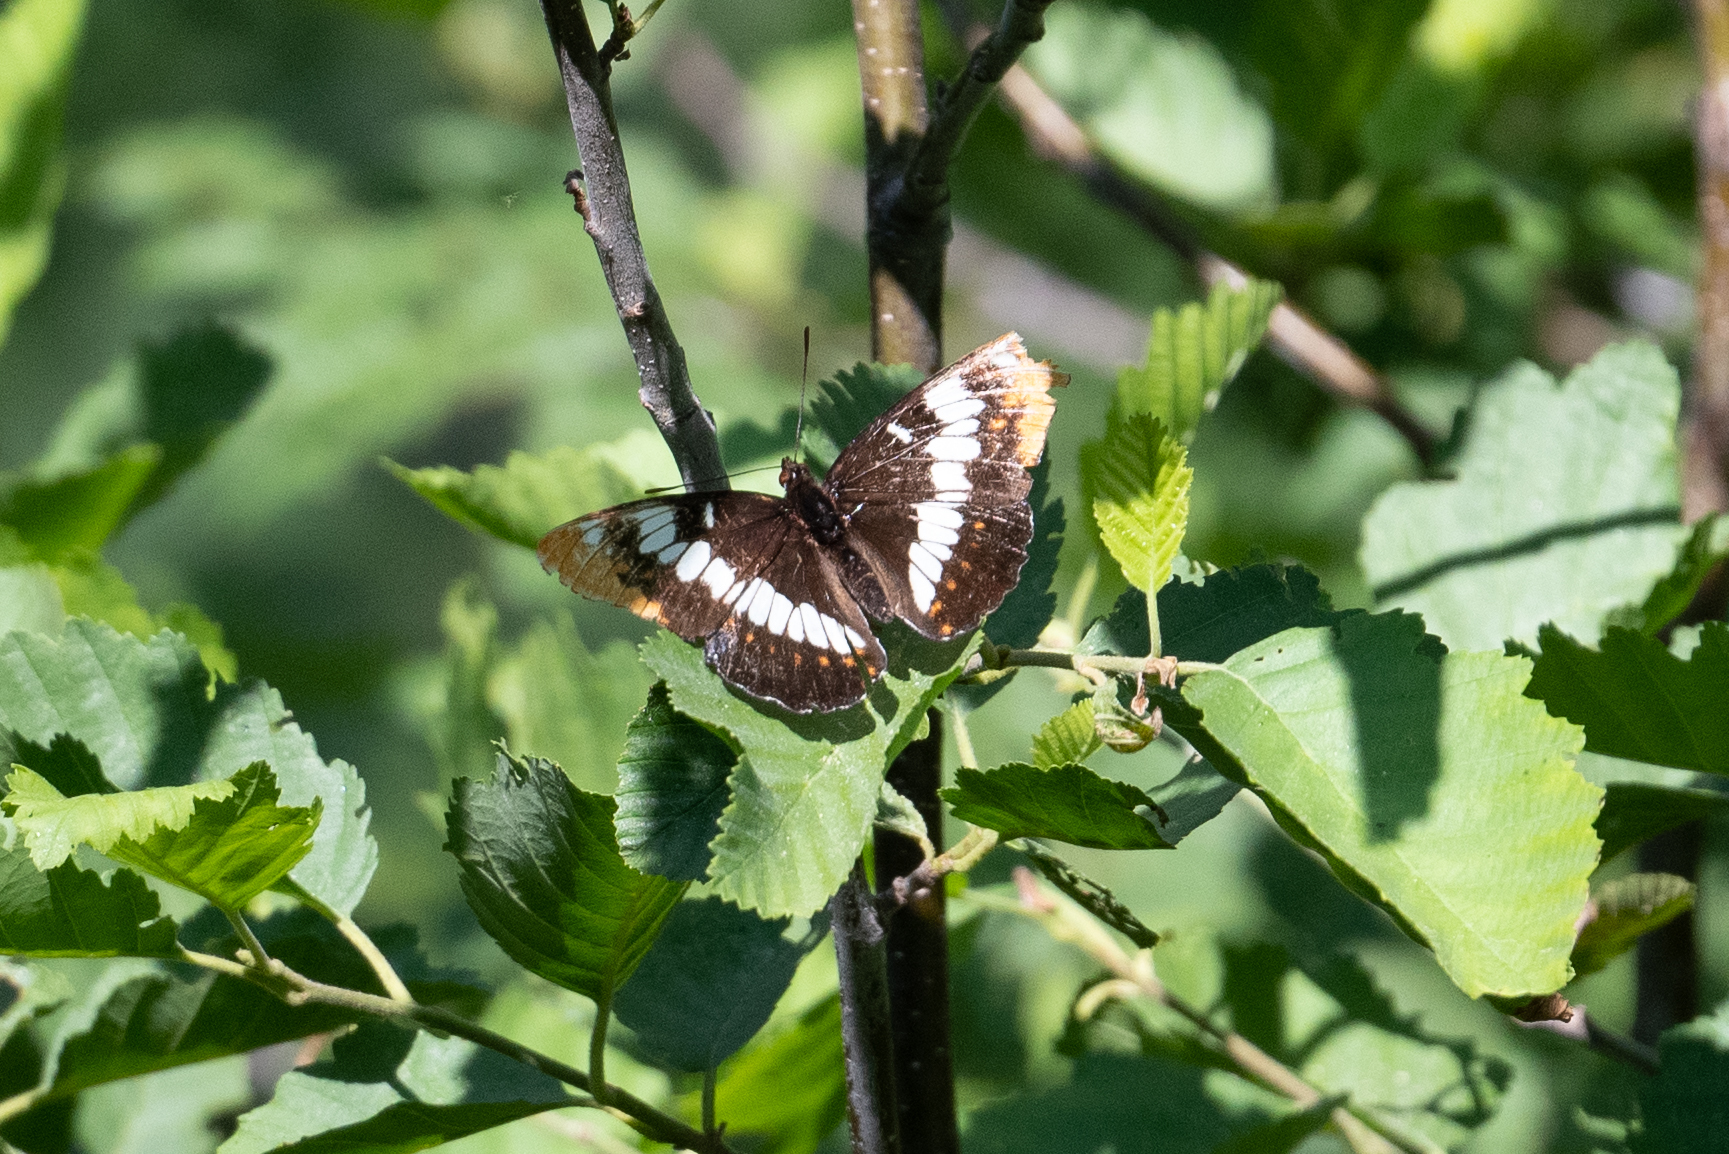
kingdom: Animalia
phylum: Arthropoda
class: Insecta
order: Lepidoptera
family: Nymphalidae
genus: Limenitis
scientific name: Limenitis lorquini
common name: Lorquin's admiral
